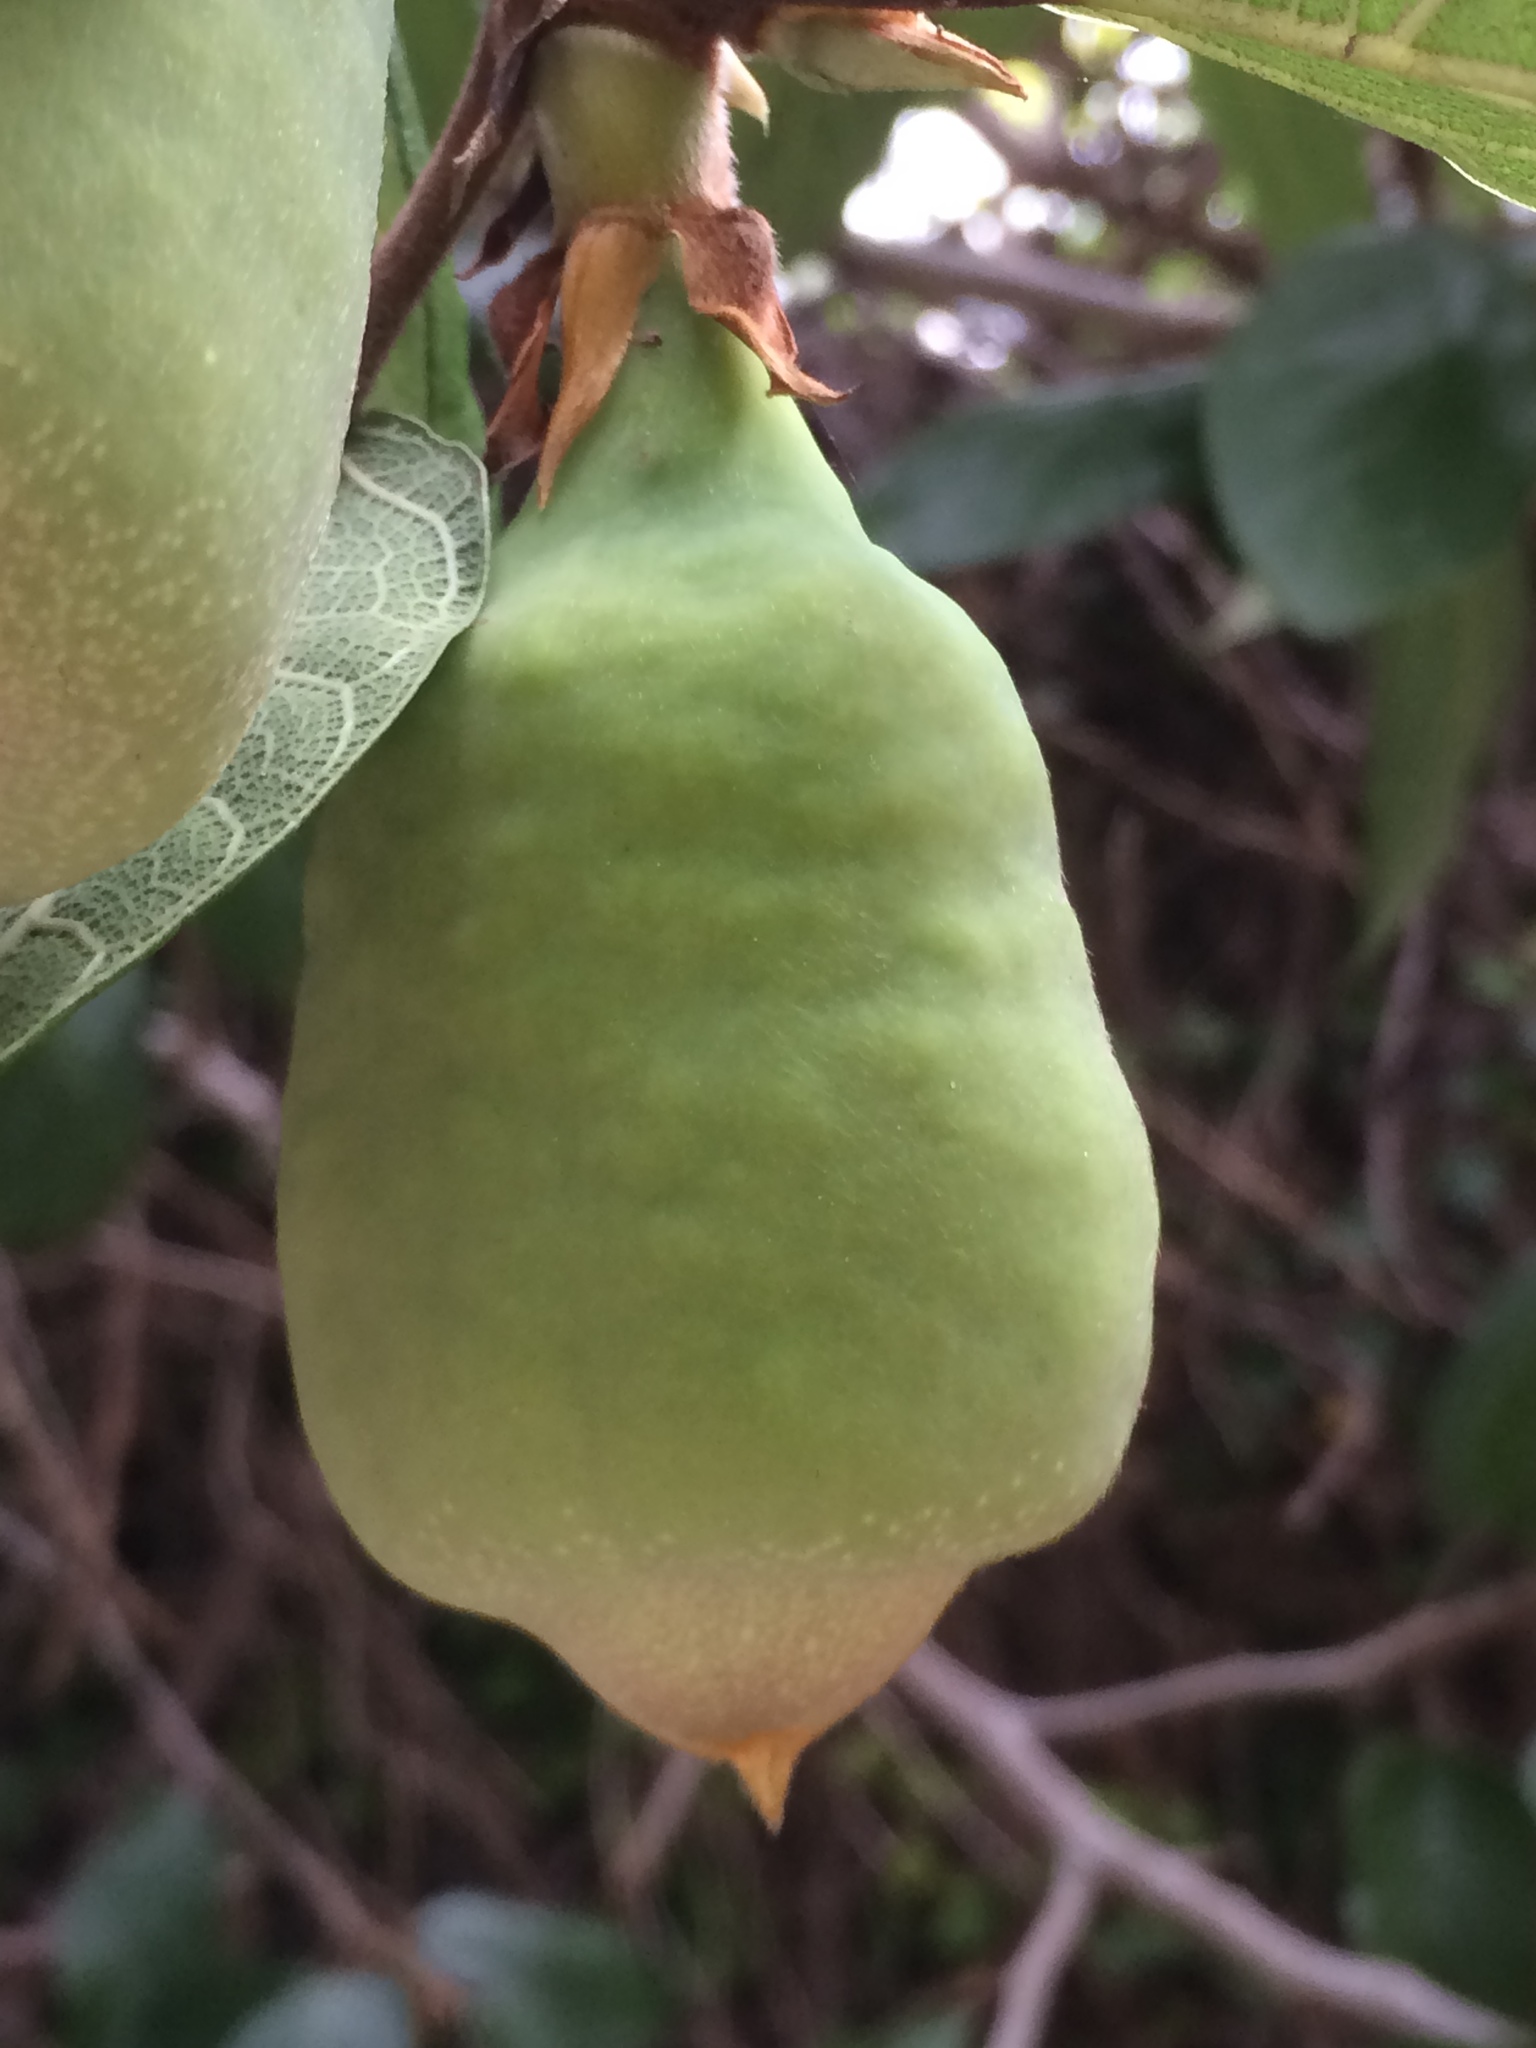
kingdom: Plantae
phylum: Tracheophyta
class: Magnoliopsida
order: Rosales
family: Moraceae
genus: Ficus
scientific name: Ficus pumila
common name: Climbingfig
